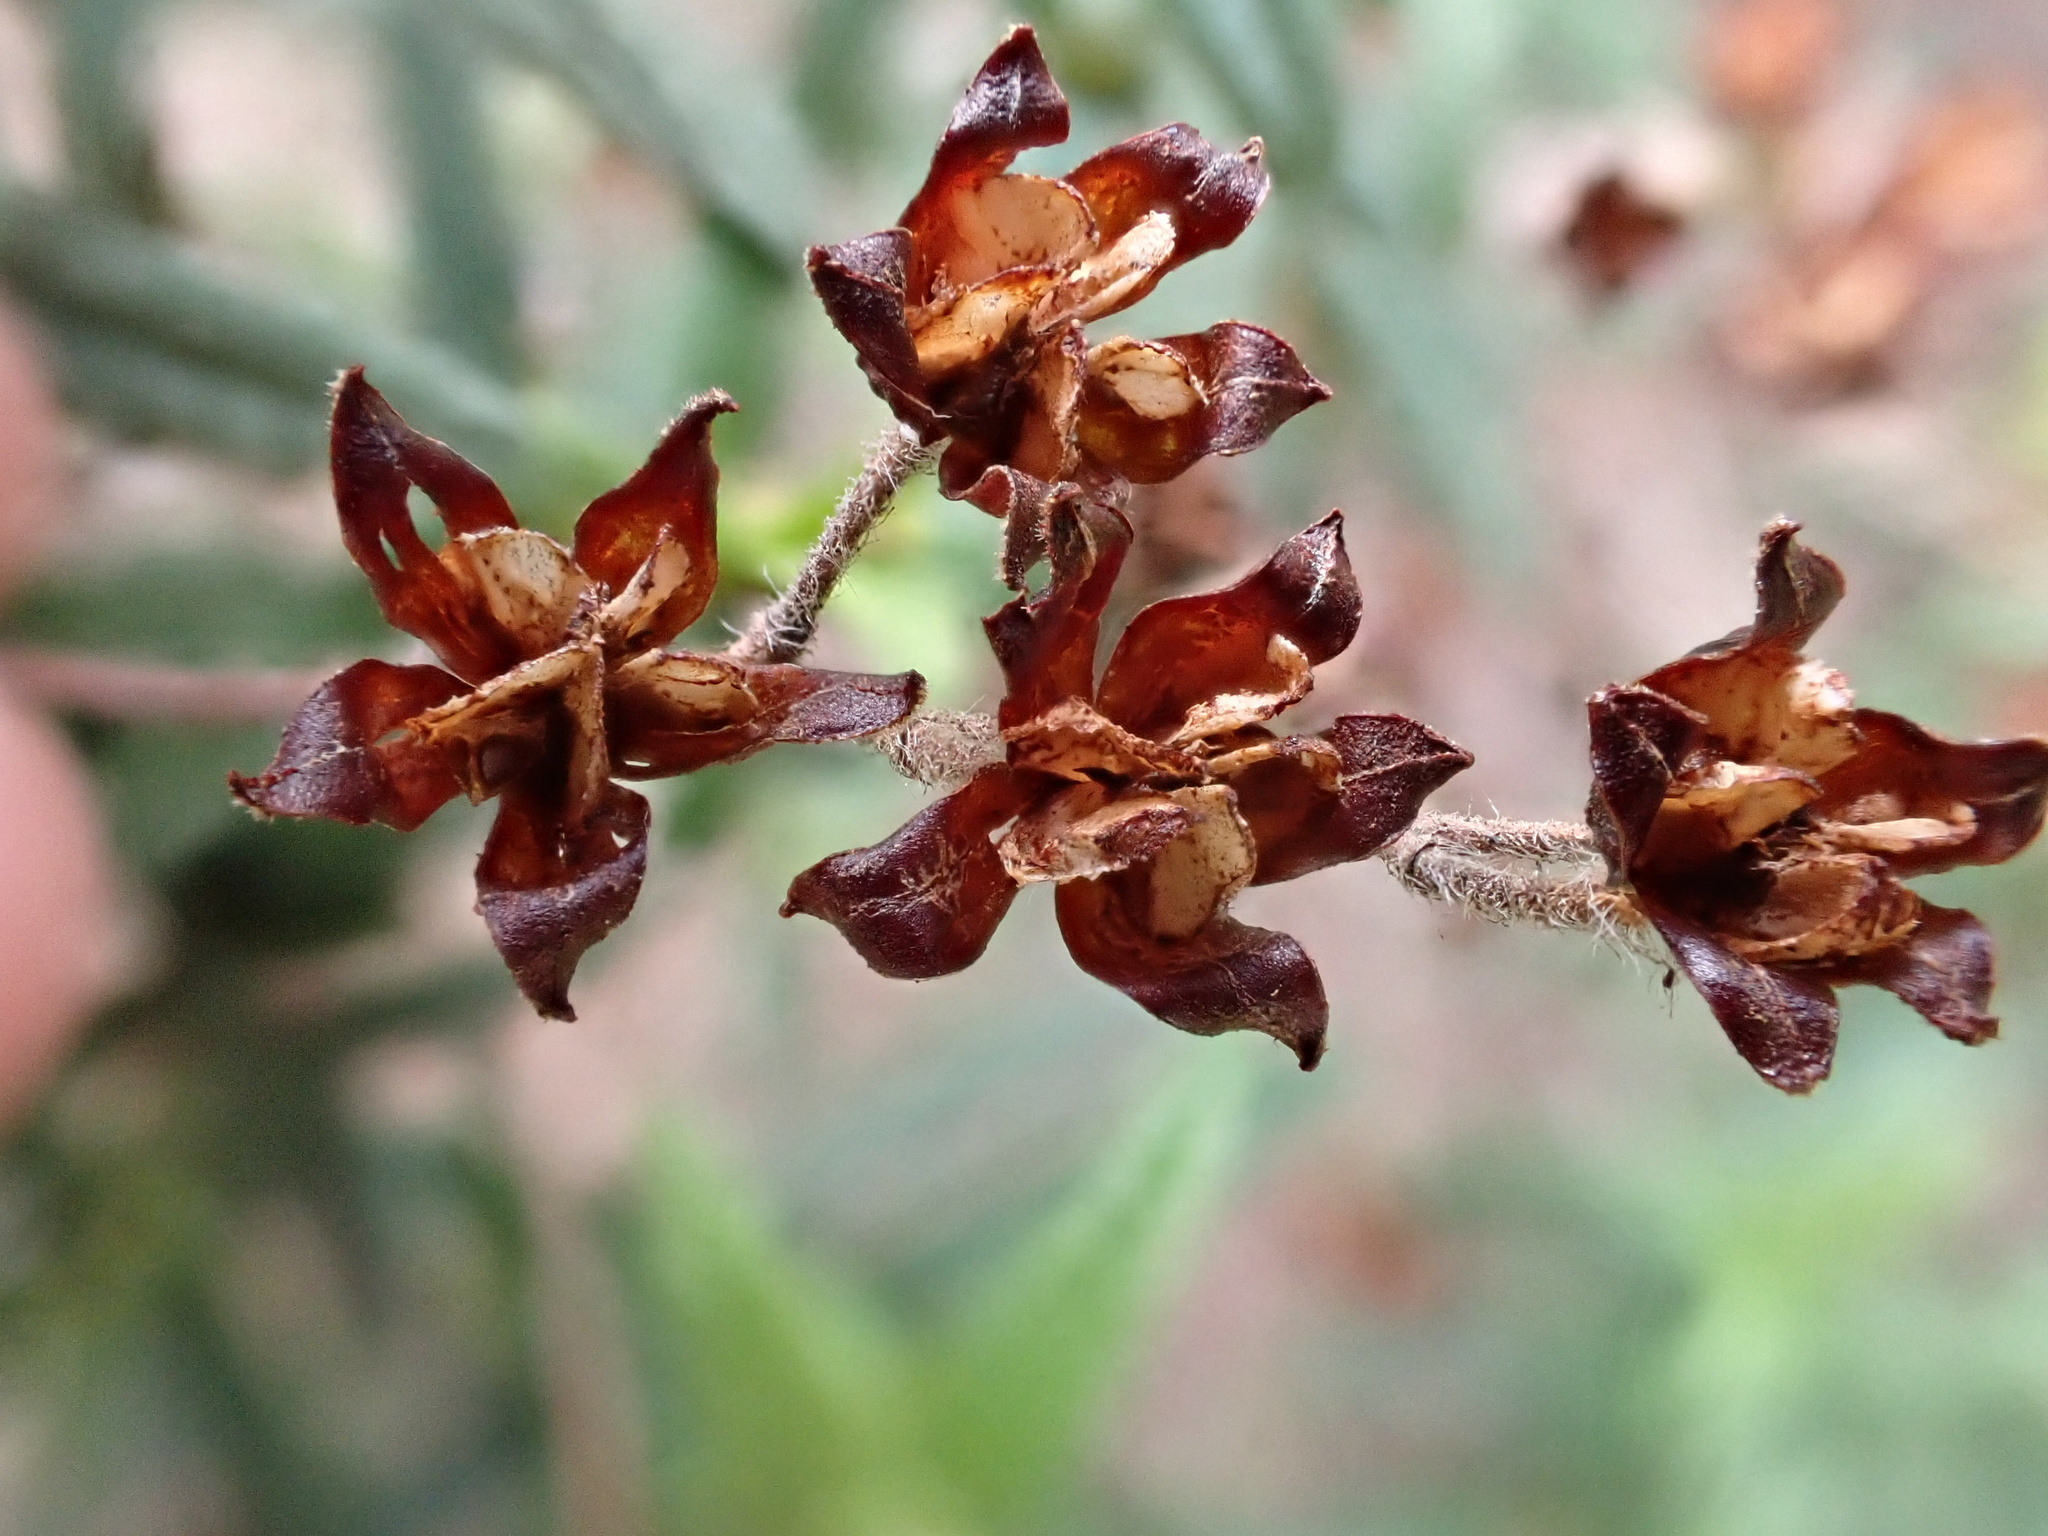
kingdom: Plantae
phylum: Tracheophyta
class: Magnoliopsida
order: Malvales
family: Cistaceae
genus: Cistus
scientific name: Cistus monspeliensis
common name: Montpelier cistus
